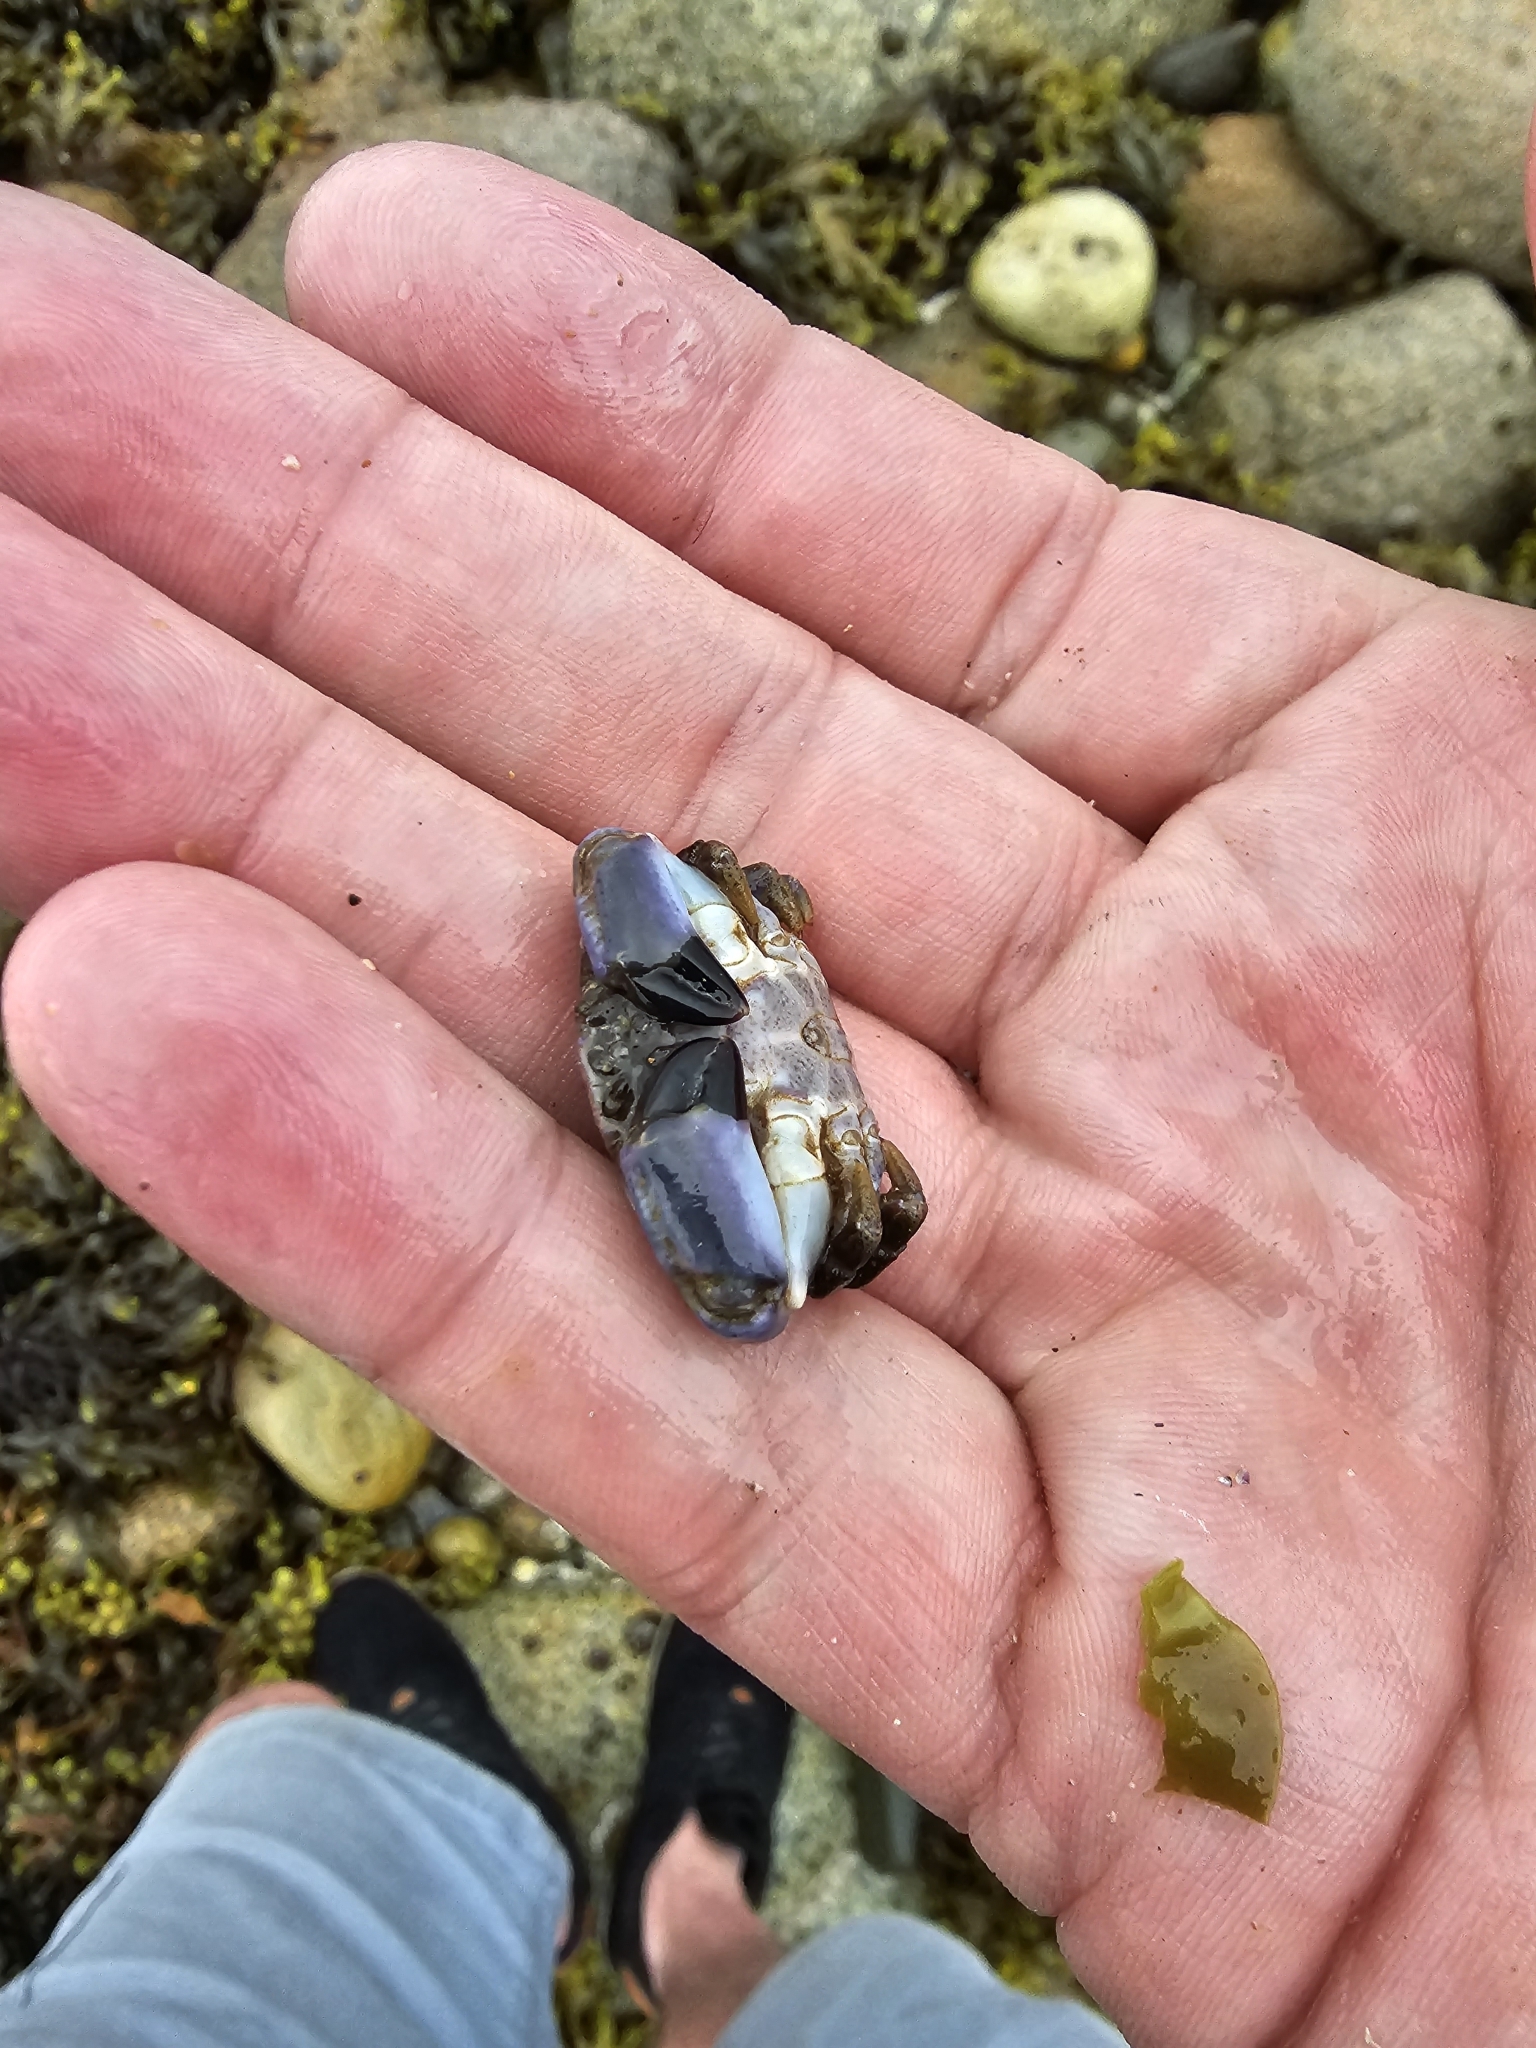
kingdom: Animalia
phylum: Arthropoda
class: Malacostraca
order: Decapoda
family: Xanthidae
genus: Xantho
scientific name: Xantho hydrophilus
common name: Montagu's crab
